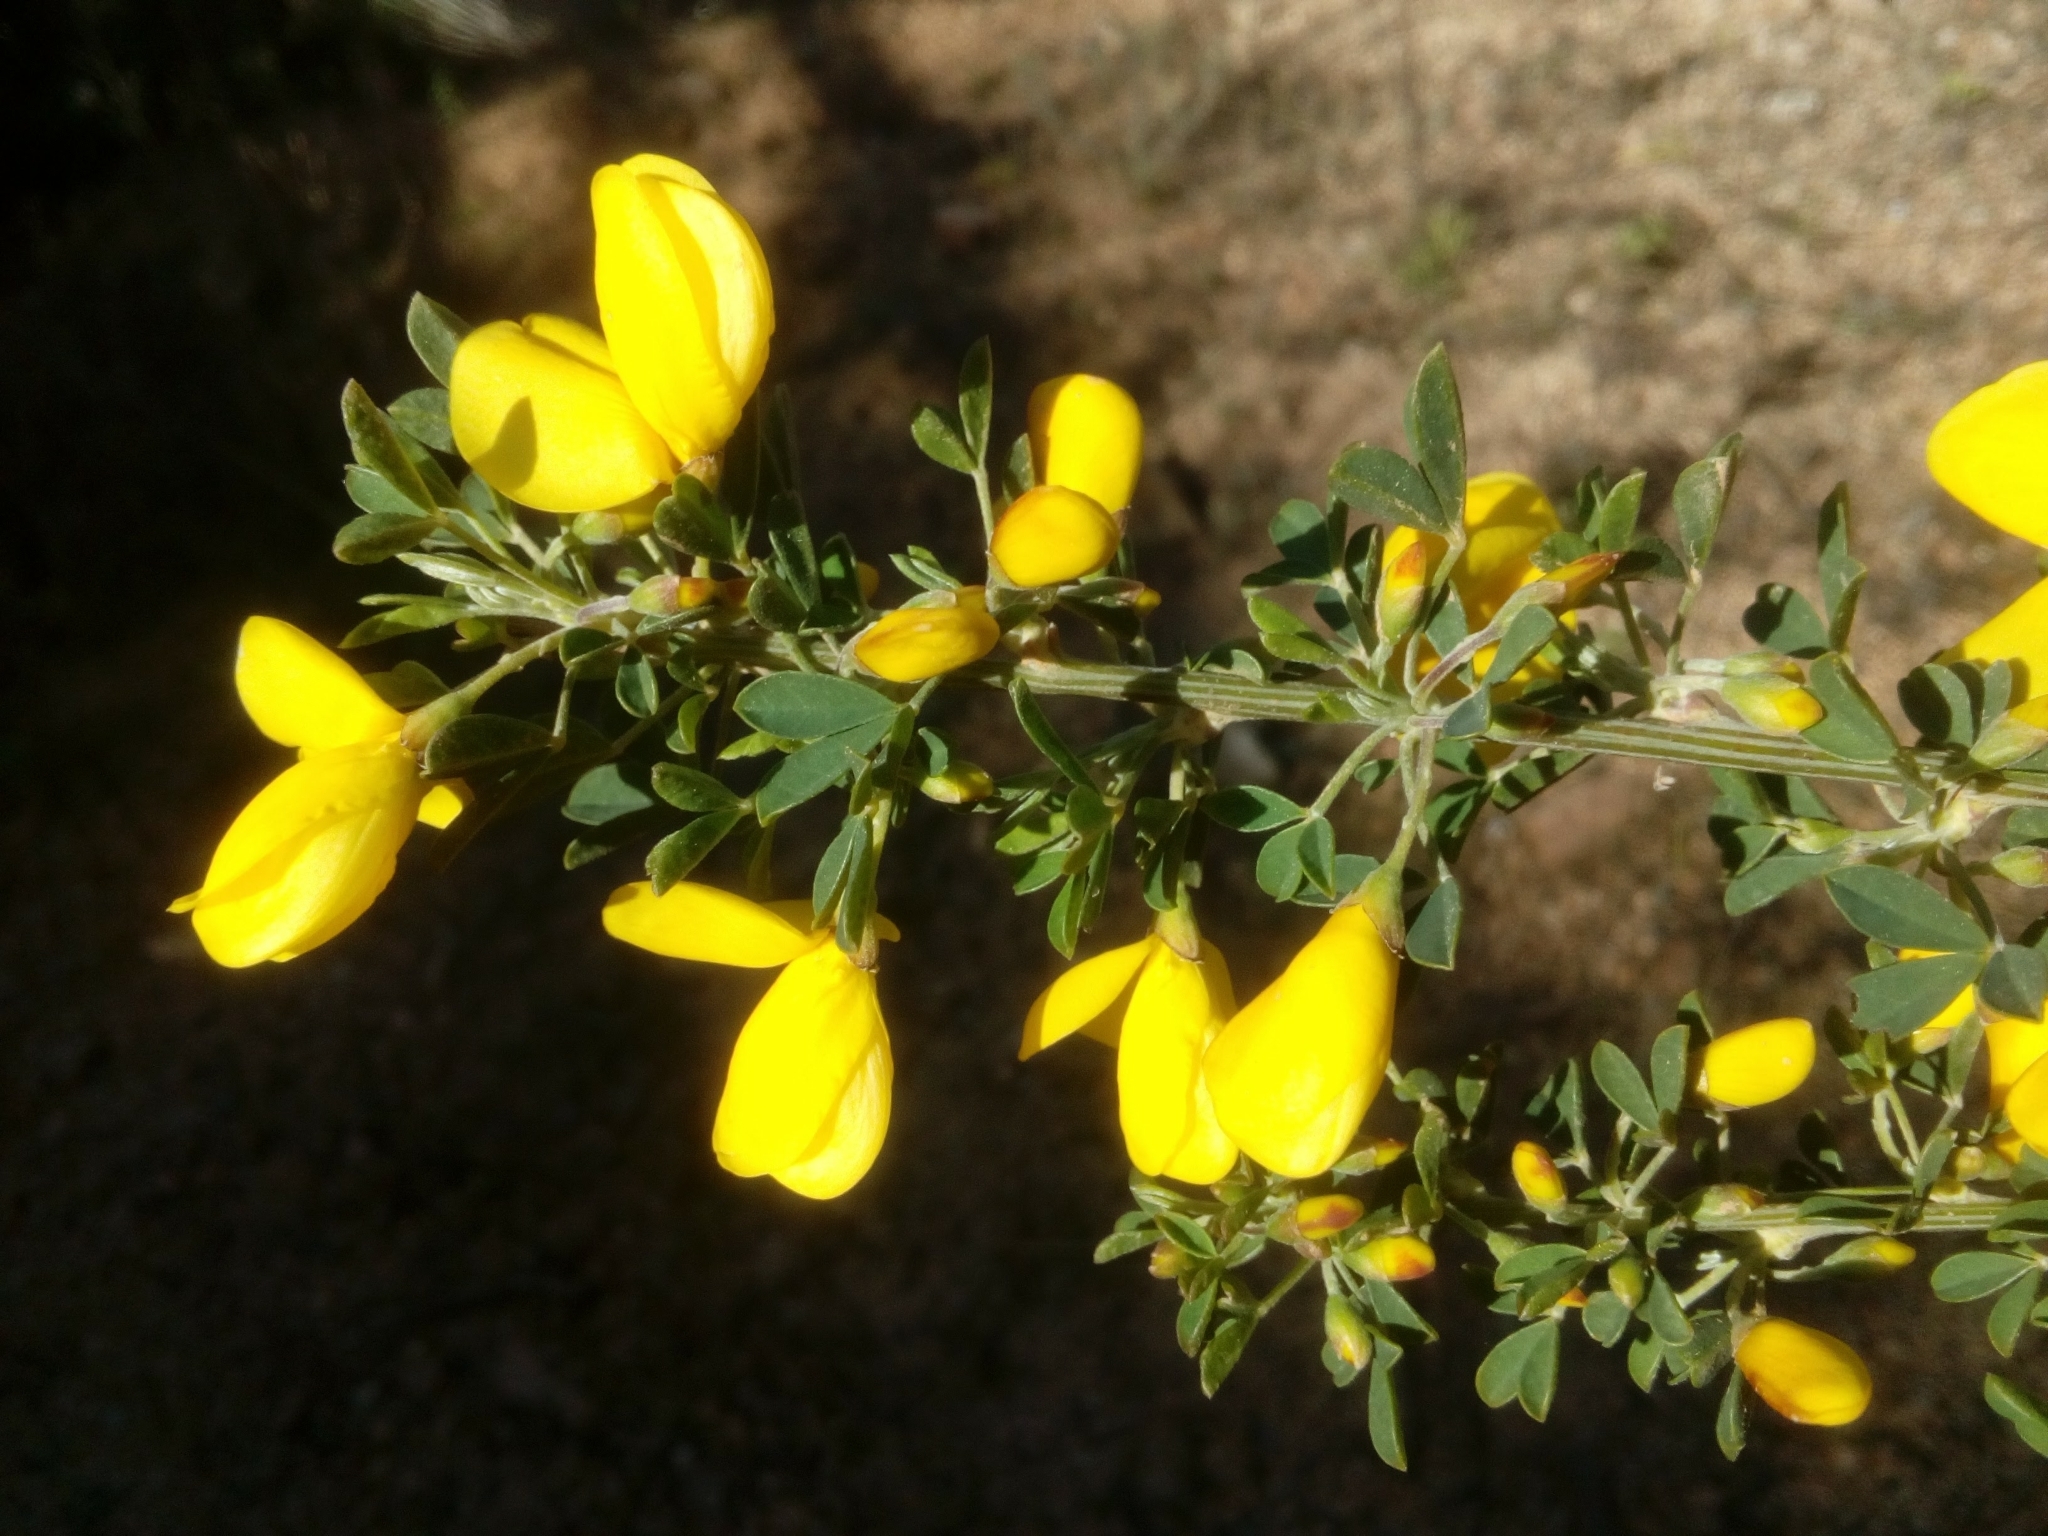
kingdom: Plantae
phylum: Tracheophyta
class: Magnoliopsida
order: Fabales
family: Fabaceae
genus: Cytisus
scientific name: Cytisus arboreus
